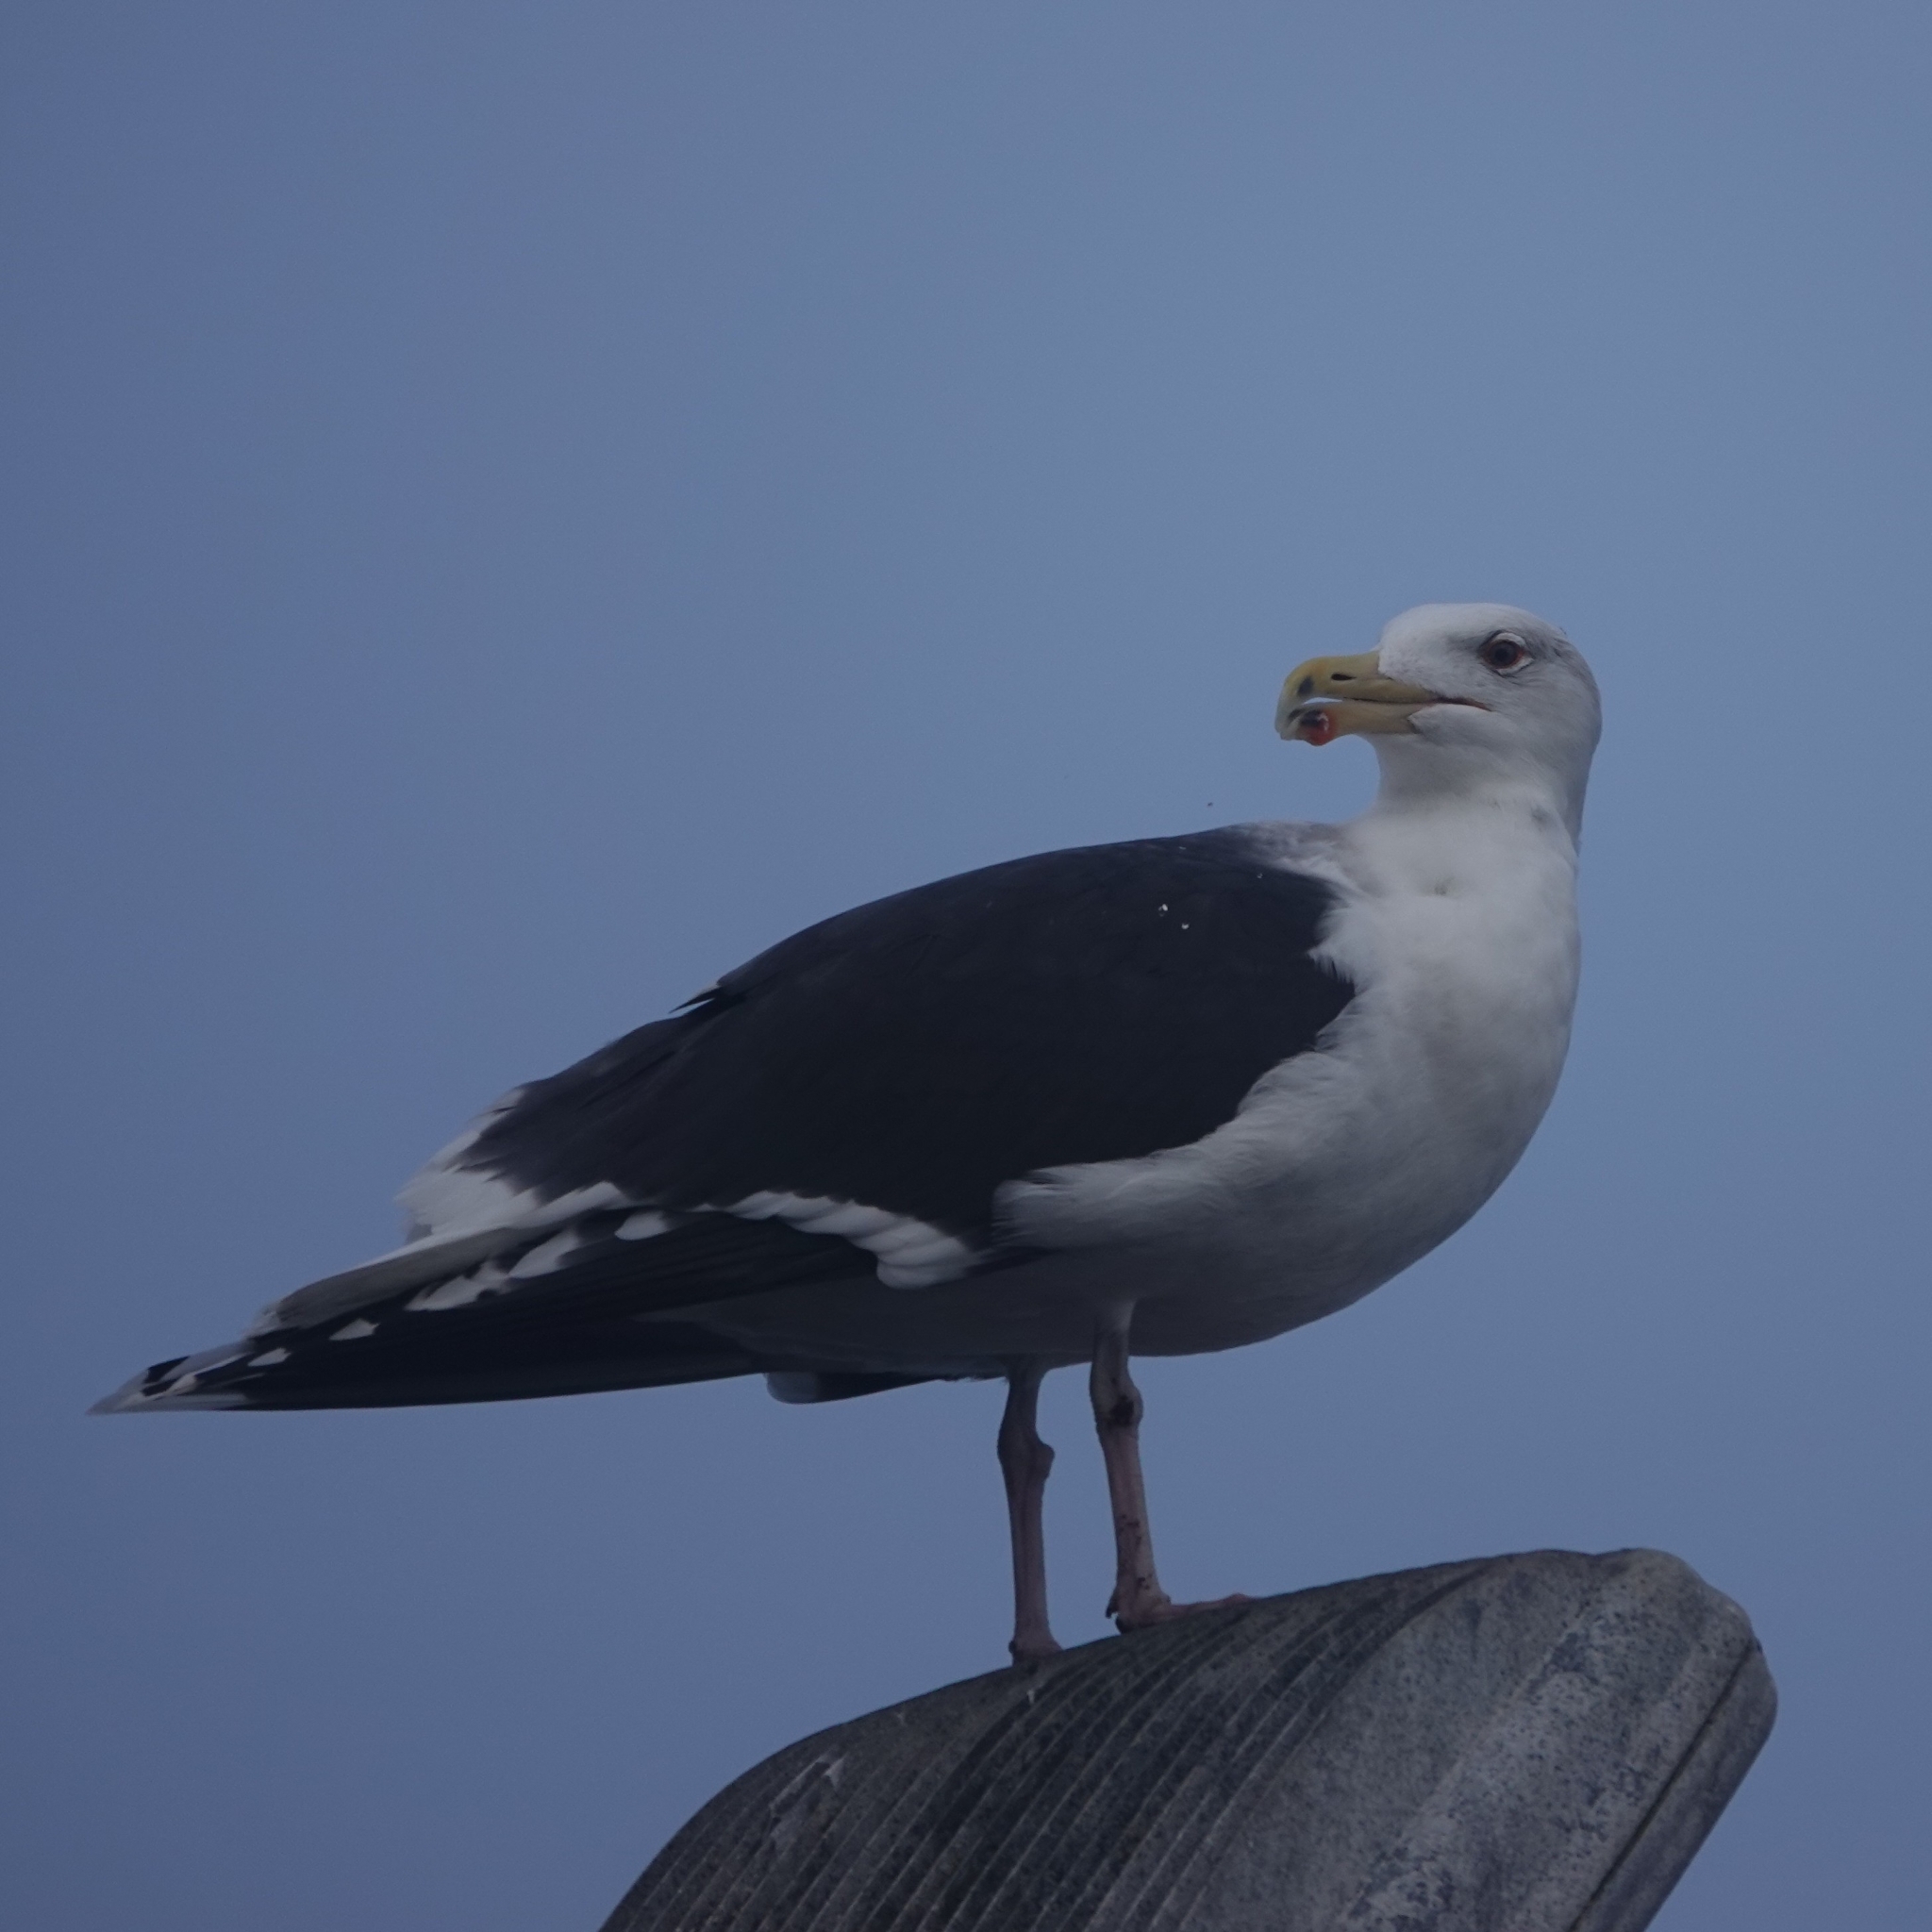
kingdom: Animalia
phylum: Chordata
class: Aves
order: Charadriiformes
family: Laridae
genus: Larus
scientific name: Larus marinus
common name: Great black-backed gull
